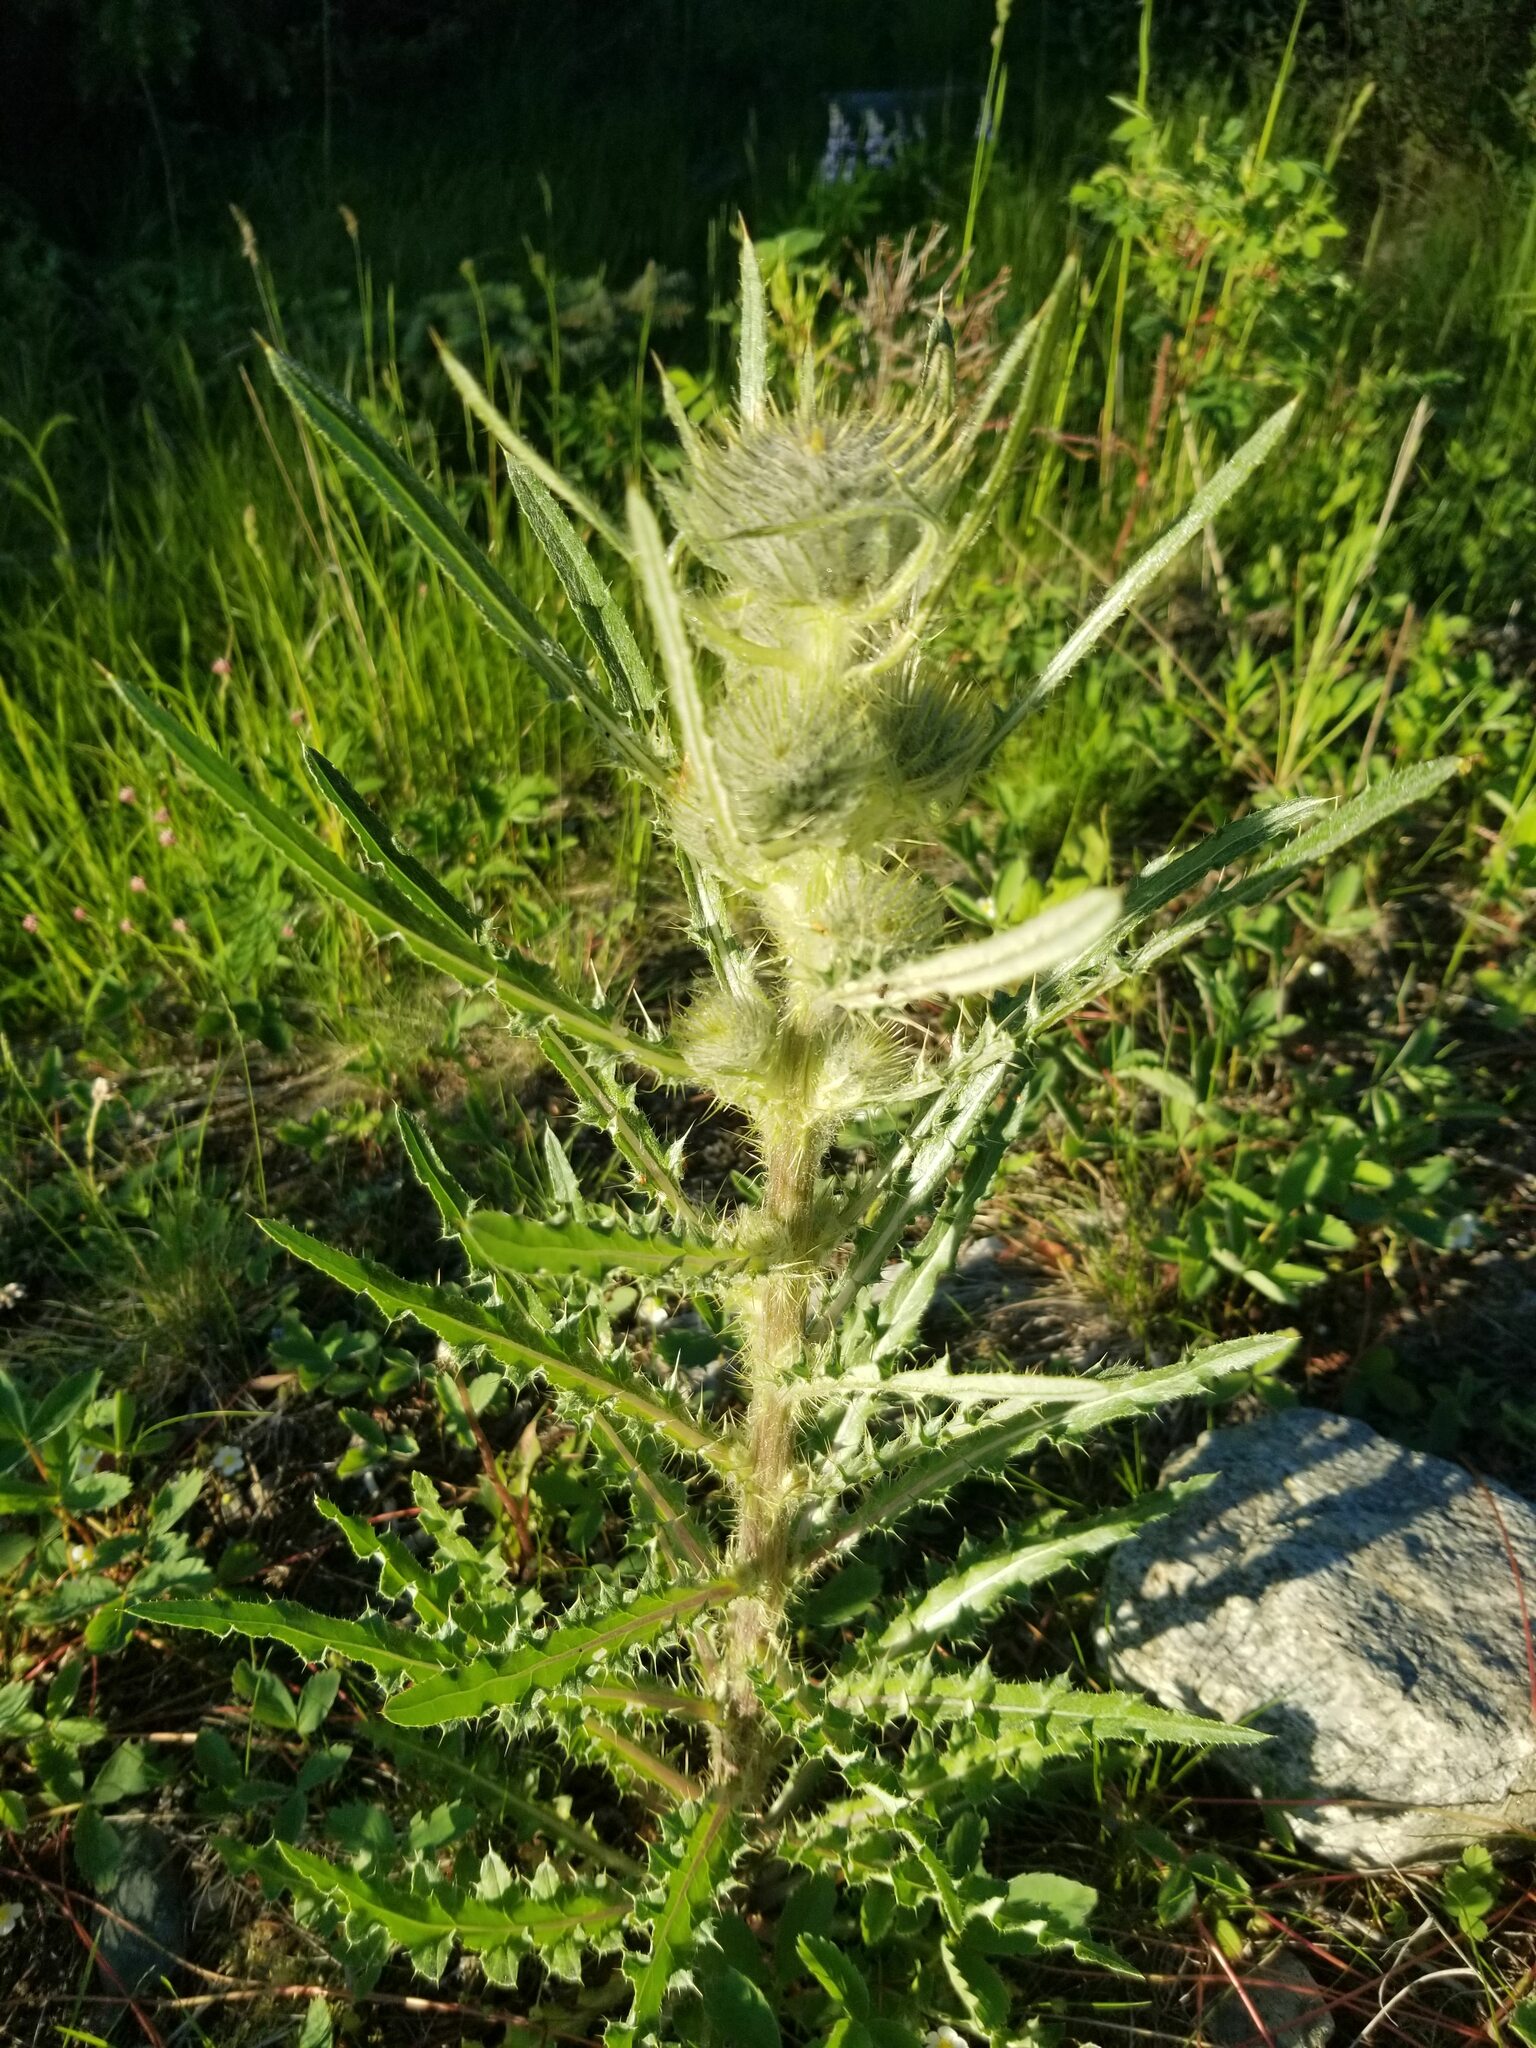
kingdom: Plantae
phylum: Tracheophyta
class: Magnoliopsida
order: Asterales
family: Asteraceae
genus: Cirsium
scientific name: Cirsium hookerianum
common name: Hooker's thistle
